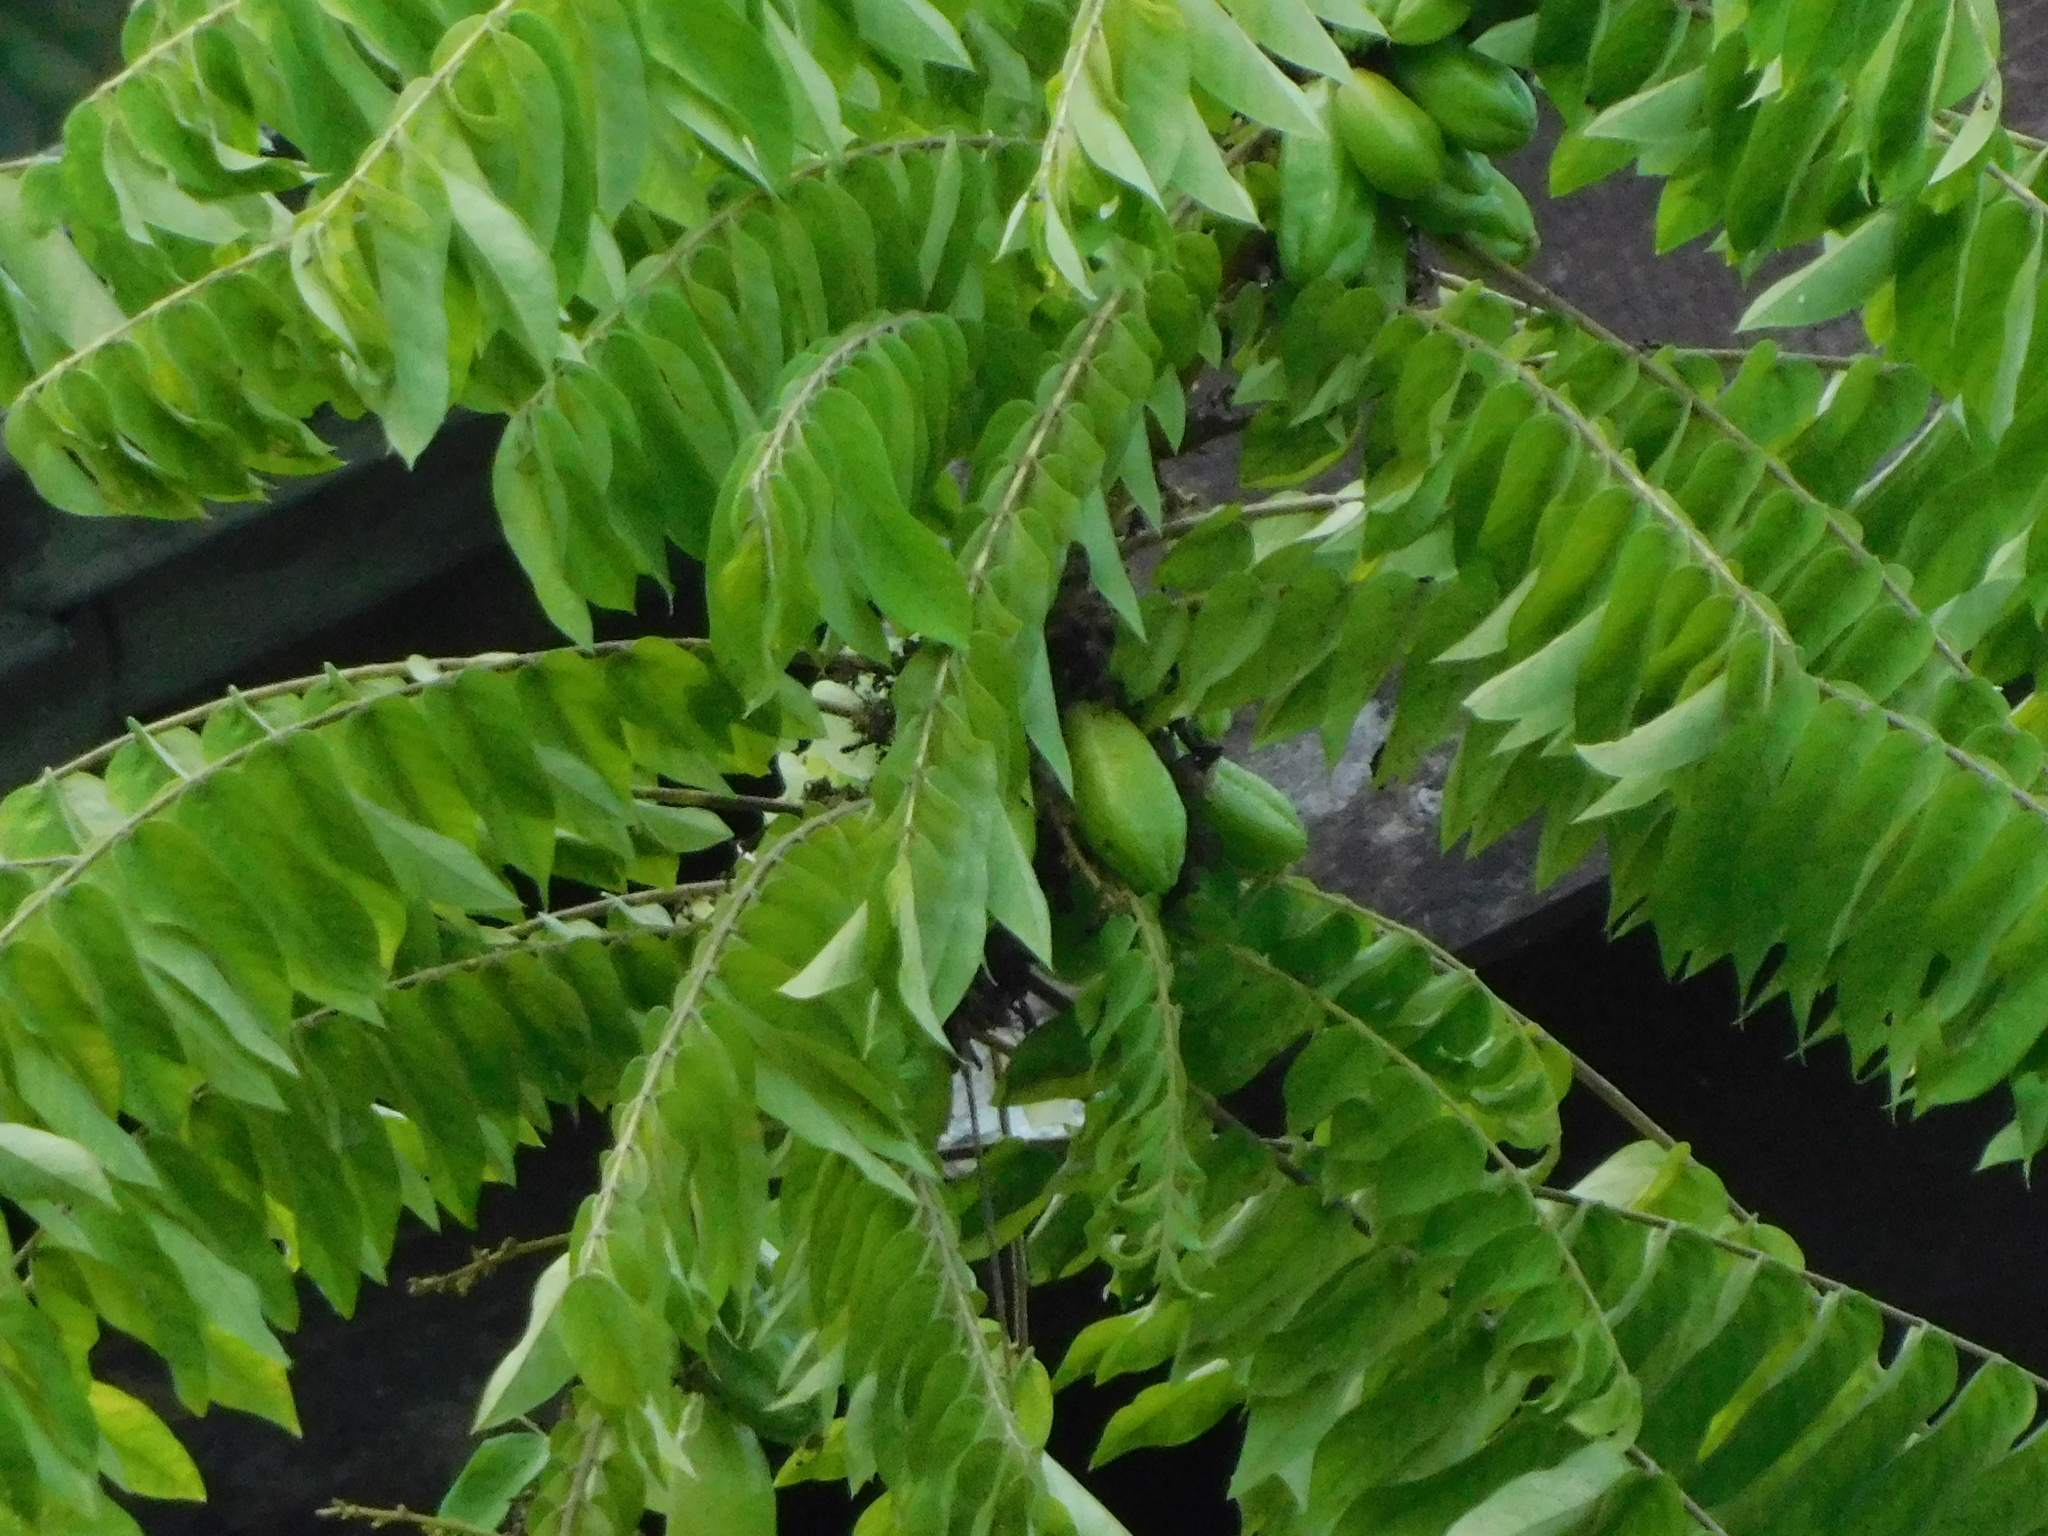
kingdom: Plantae
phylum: Tracheophyta
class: Magnoliopsida
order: Oxalidales
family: Oxalidaceae
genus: Averrhoa
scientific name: Averrhoa bilimbi
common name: Bilimbi
